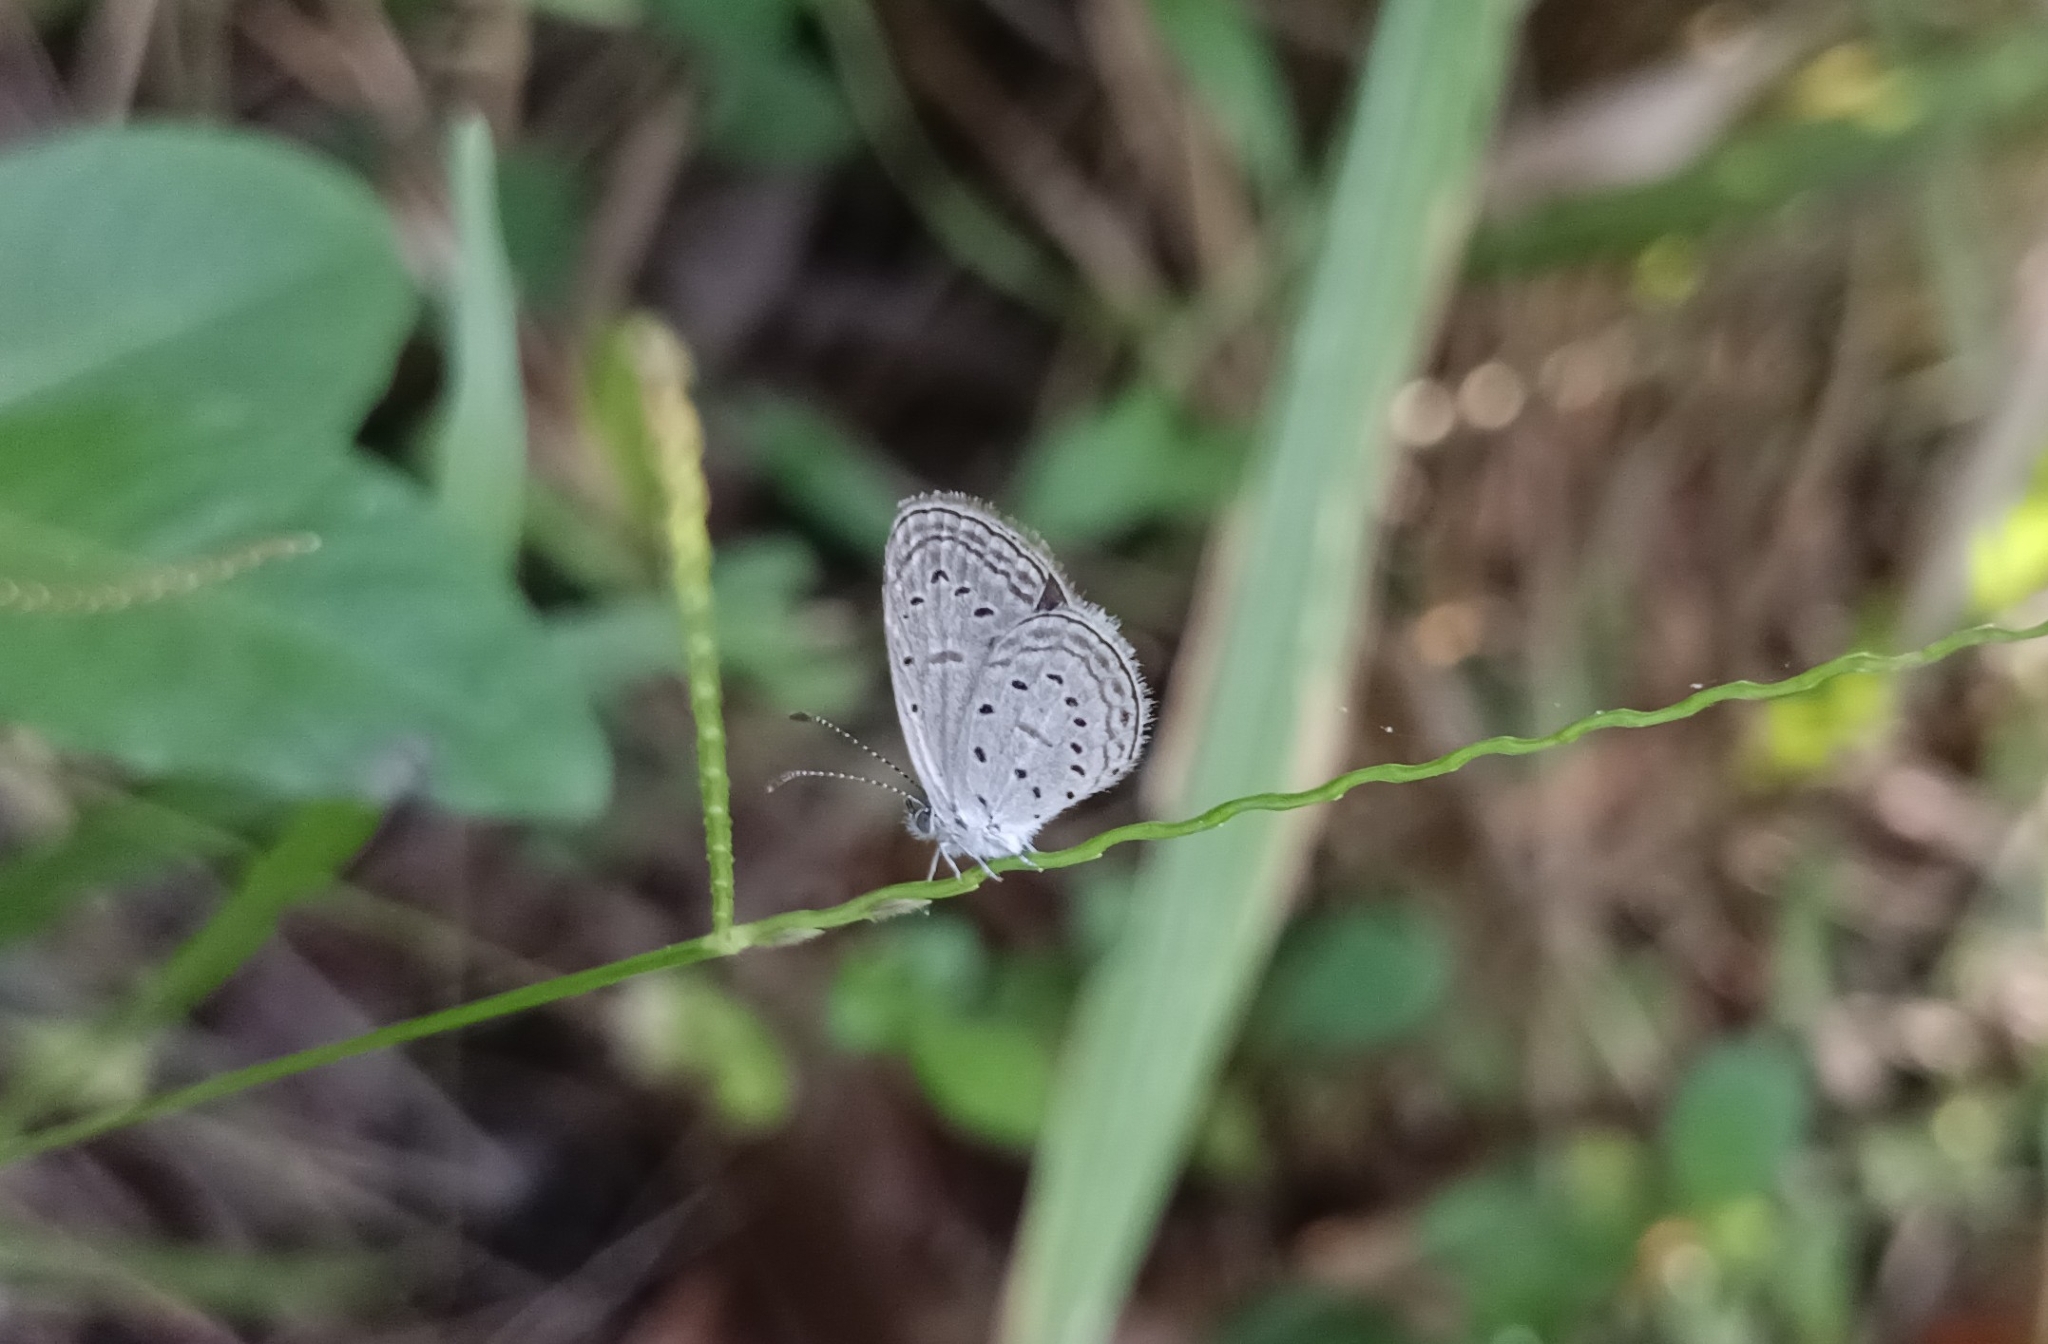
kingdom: Animalia
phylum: Arthropoda
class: Insecta
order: Lepidoptera
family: Lycaenidae
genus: Zizula
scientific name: Zizula hylax
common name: Gaika blue
